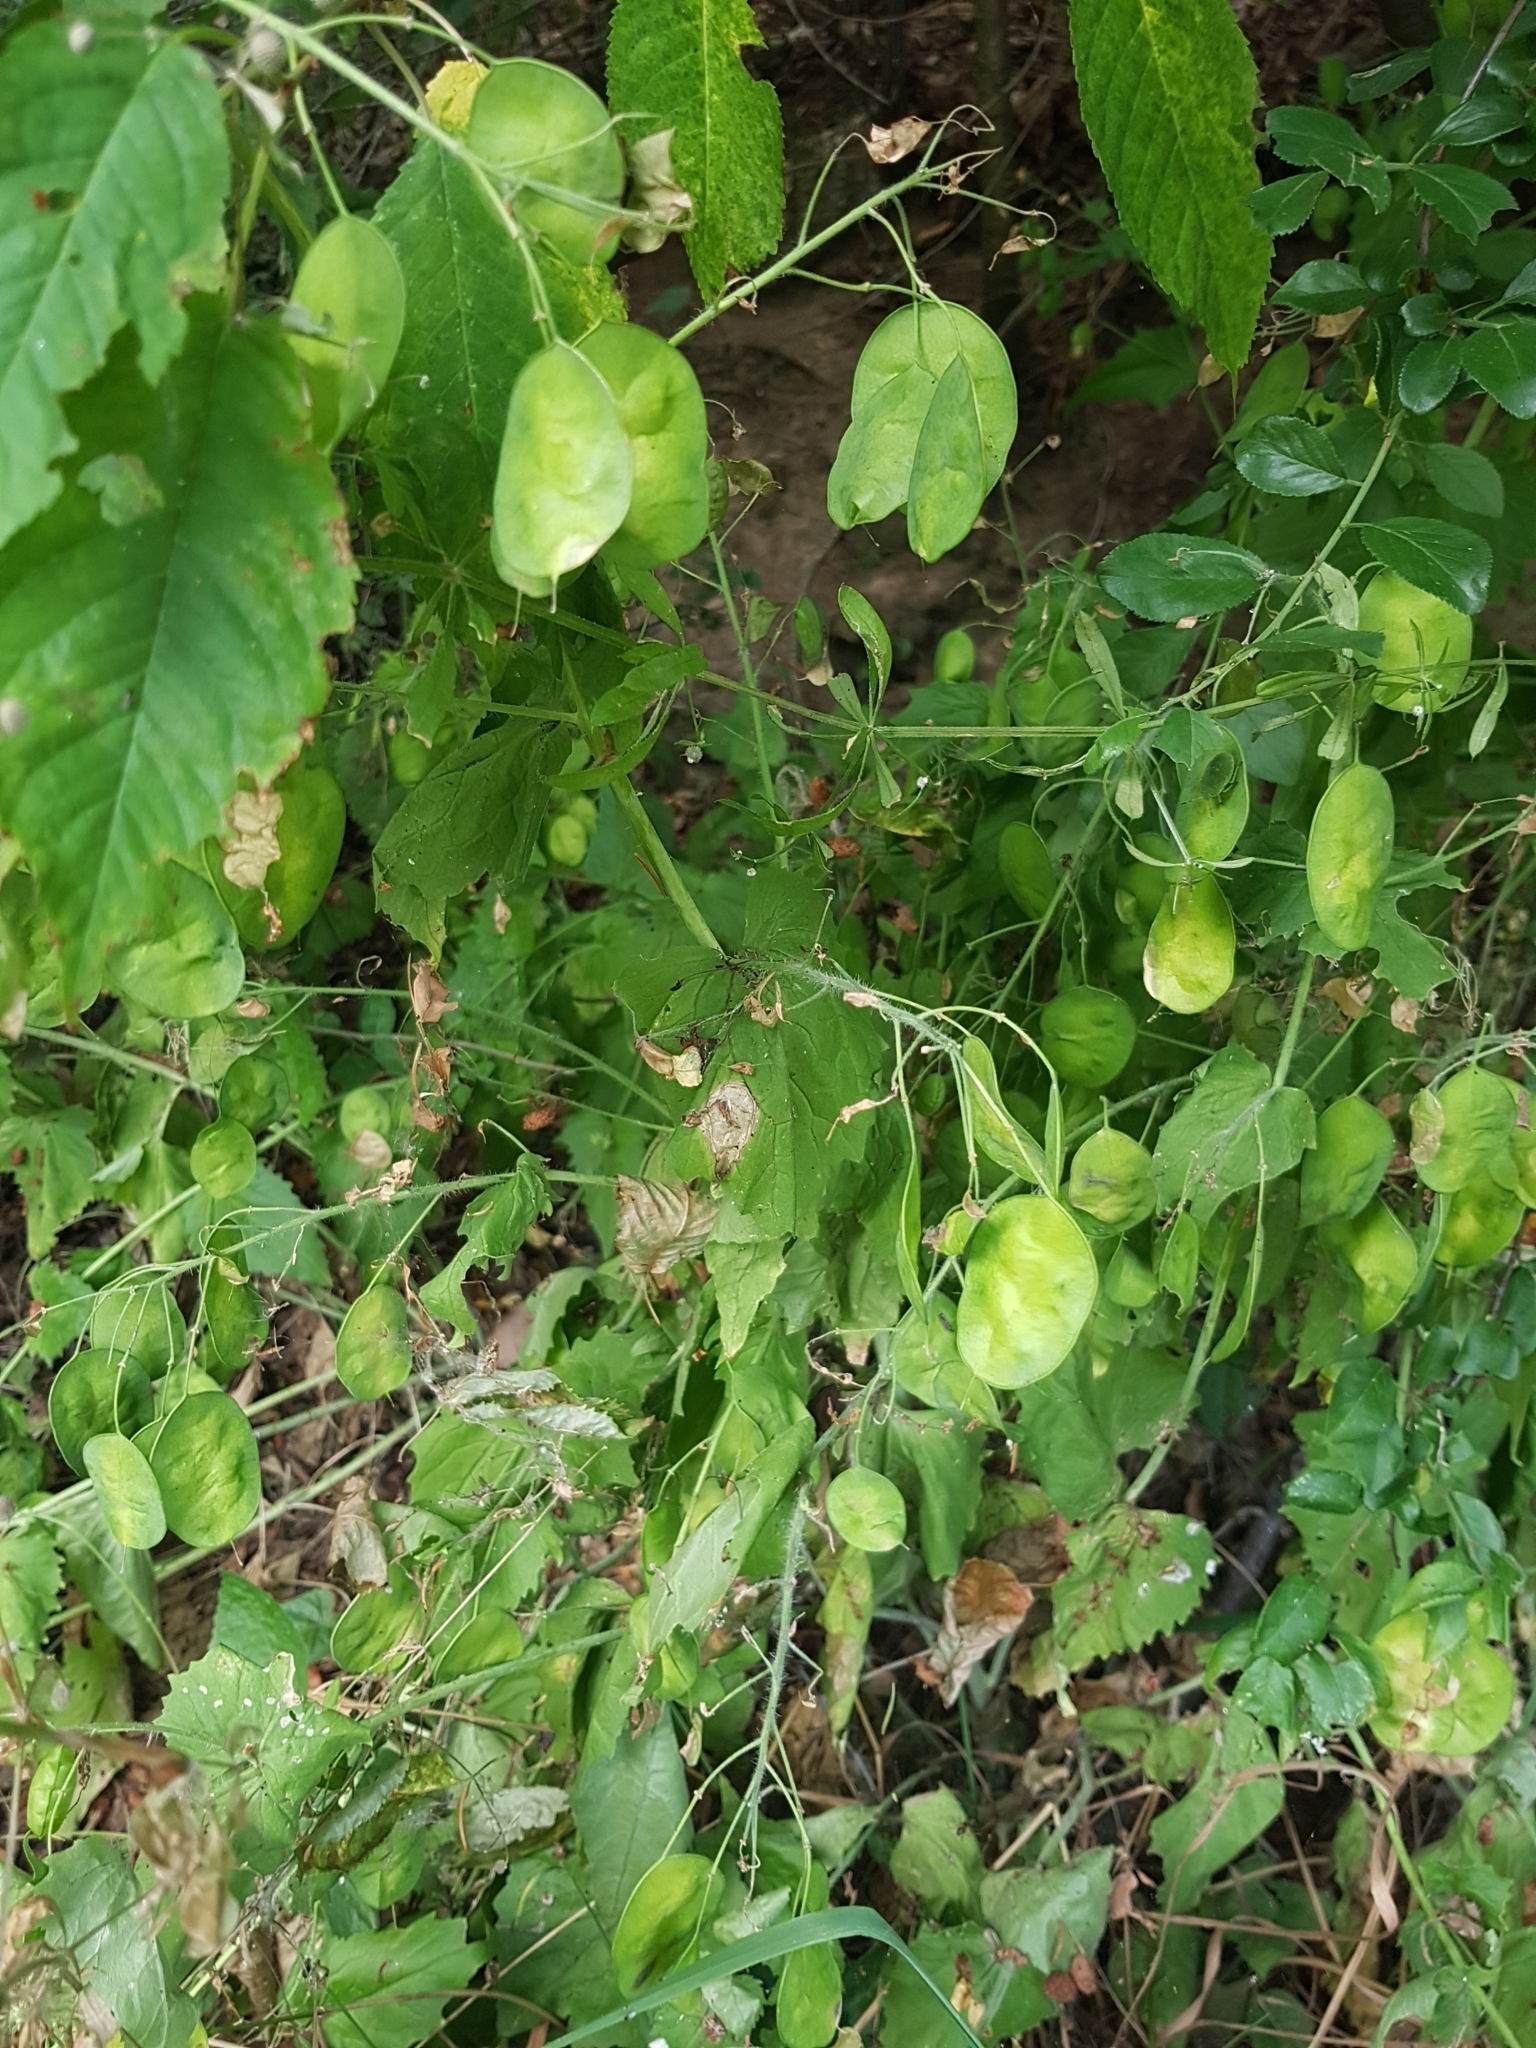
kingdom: Plantae
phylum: Tracheophyta
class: Magnoliopsida
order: Brassicales
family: Brassicaceae
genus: Lunaria
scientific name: Lunaria annua
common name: Honesty
